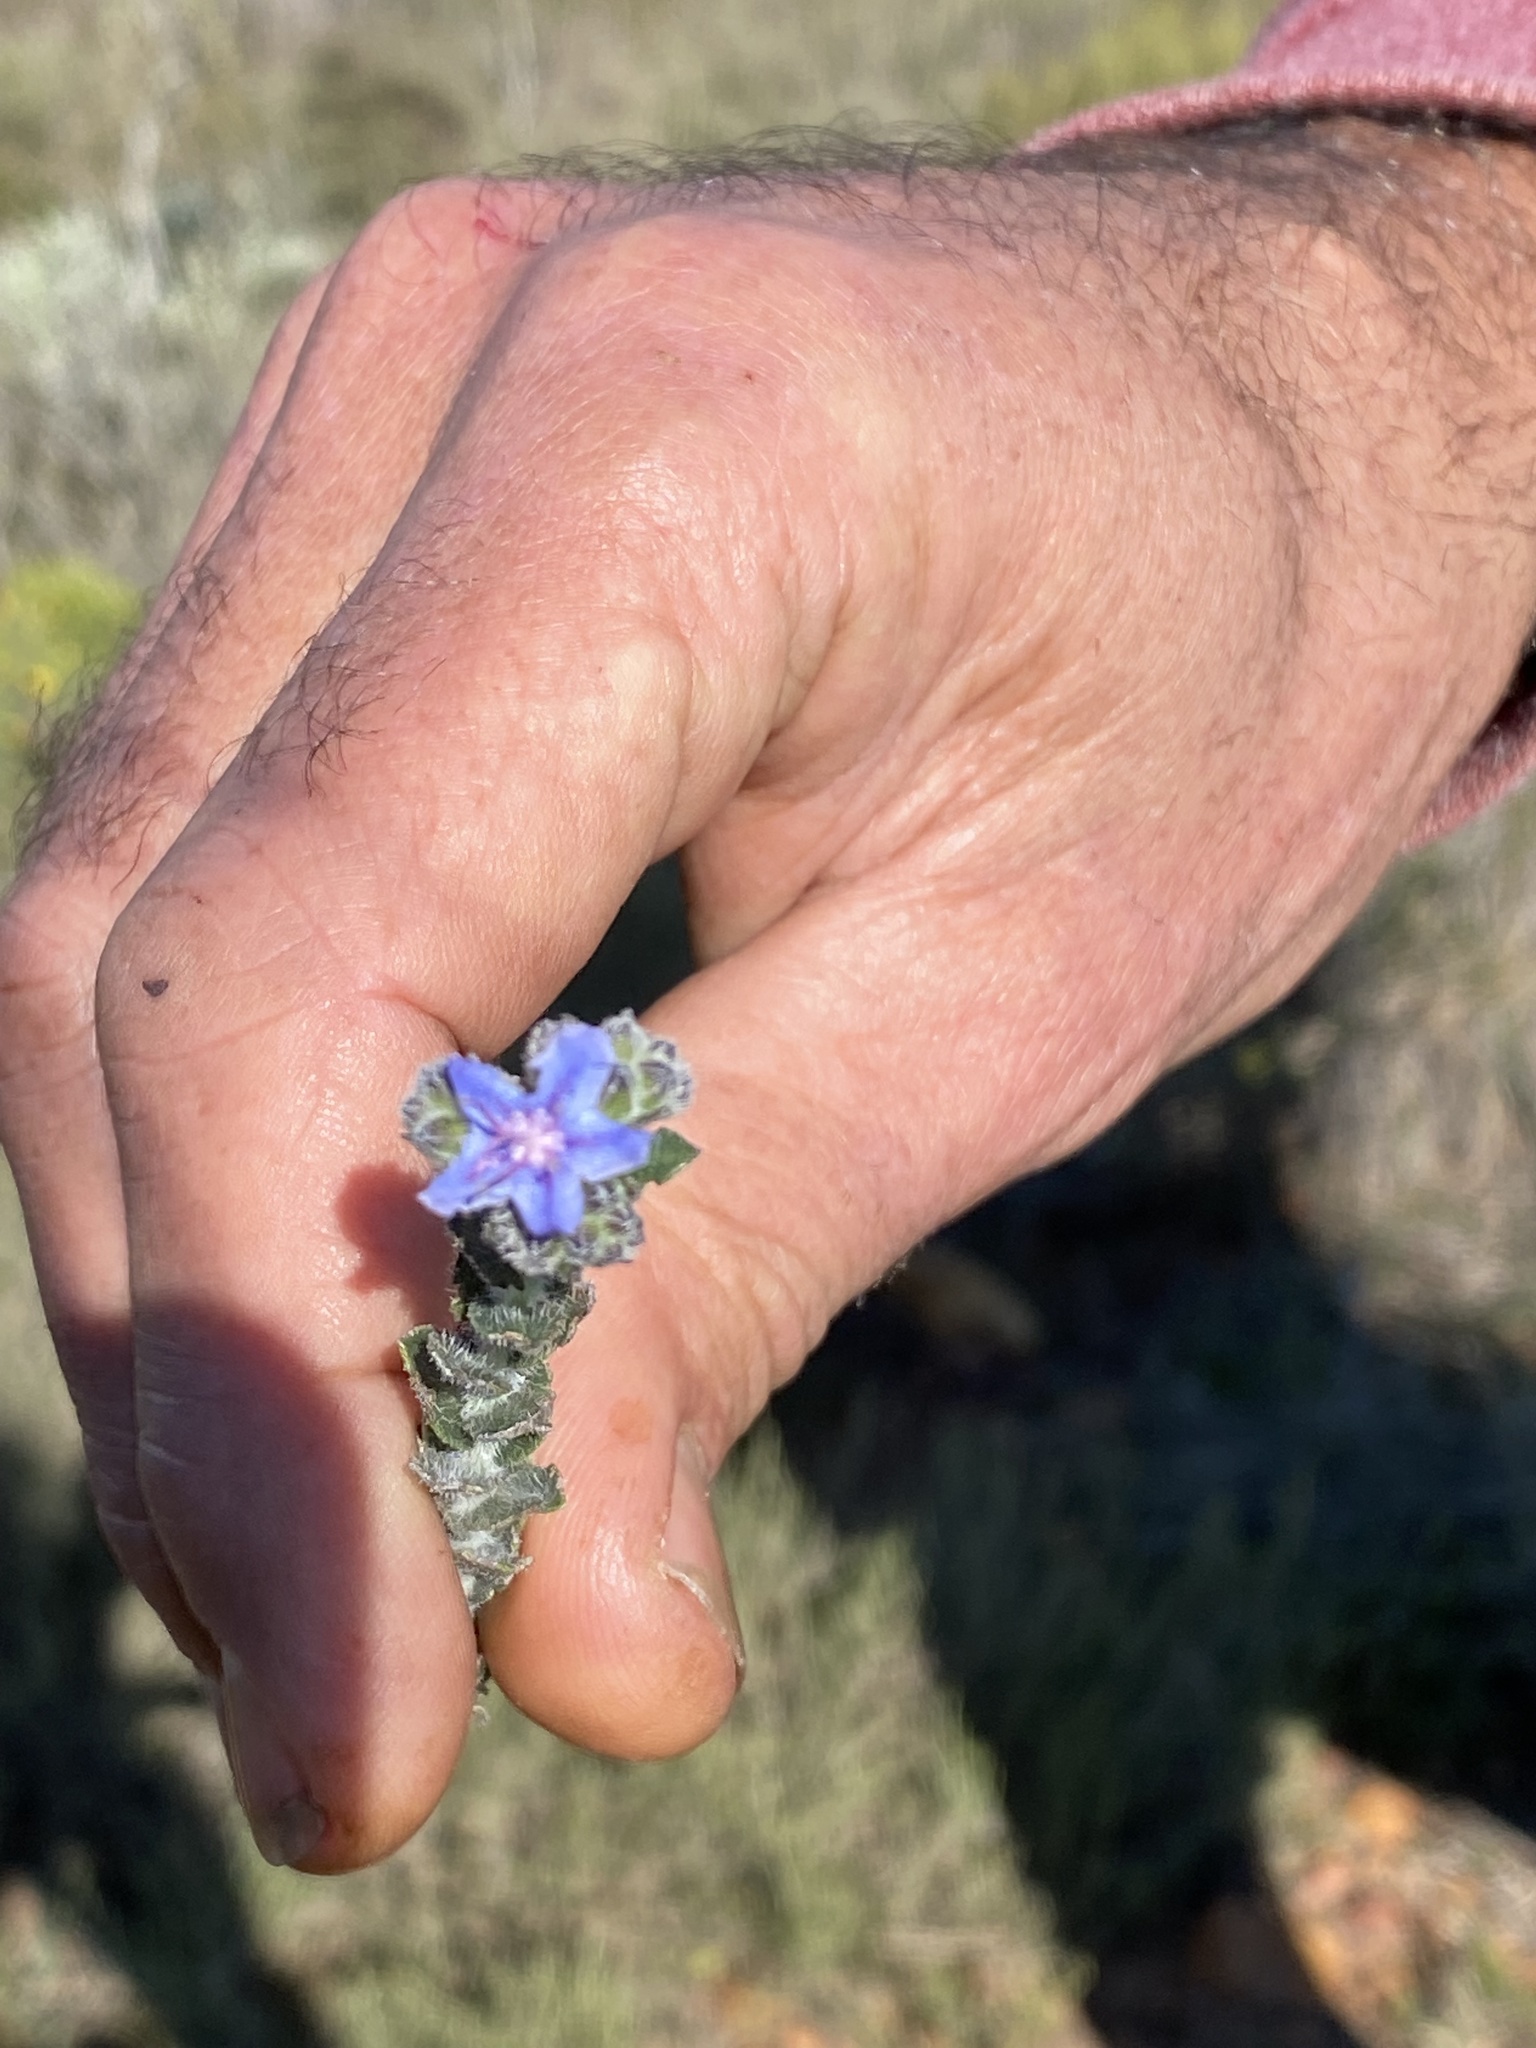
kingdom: Plantae
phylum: Tracheophyta
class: Magnoliopsida
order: Boraginales
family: Boraginaceae
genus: Lobostemon
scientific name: Lobostemon echioides
